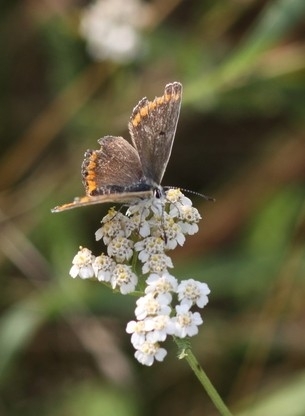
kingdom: Animalia
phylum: Arthropoda
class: Insecta
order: Lepidoptera
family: Lycaenidae
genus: Aricia
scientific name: Aricia agestis
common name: Brown argus
